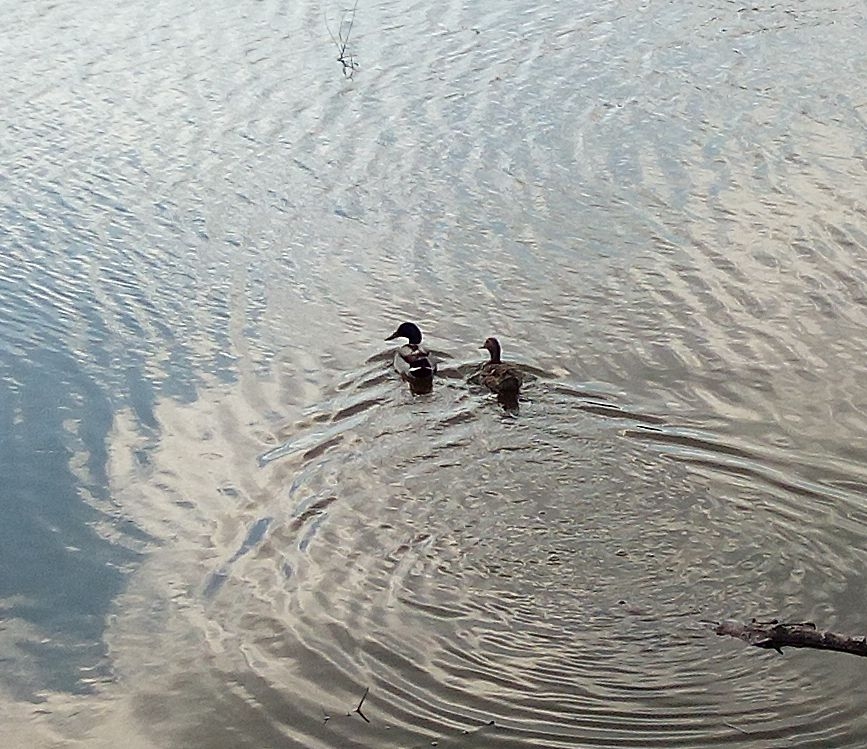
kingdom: Animalia
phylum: Chordata
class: Aves
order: Anseriformes
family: Anatidae
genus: Anas
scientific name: Anas platyrhynchos
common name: Mallard
